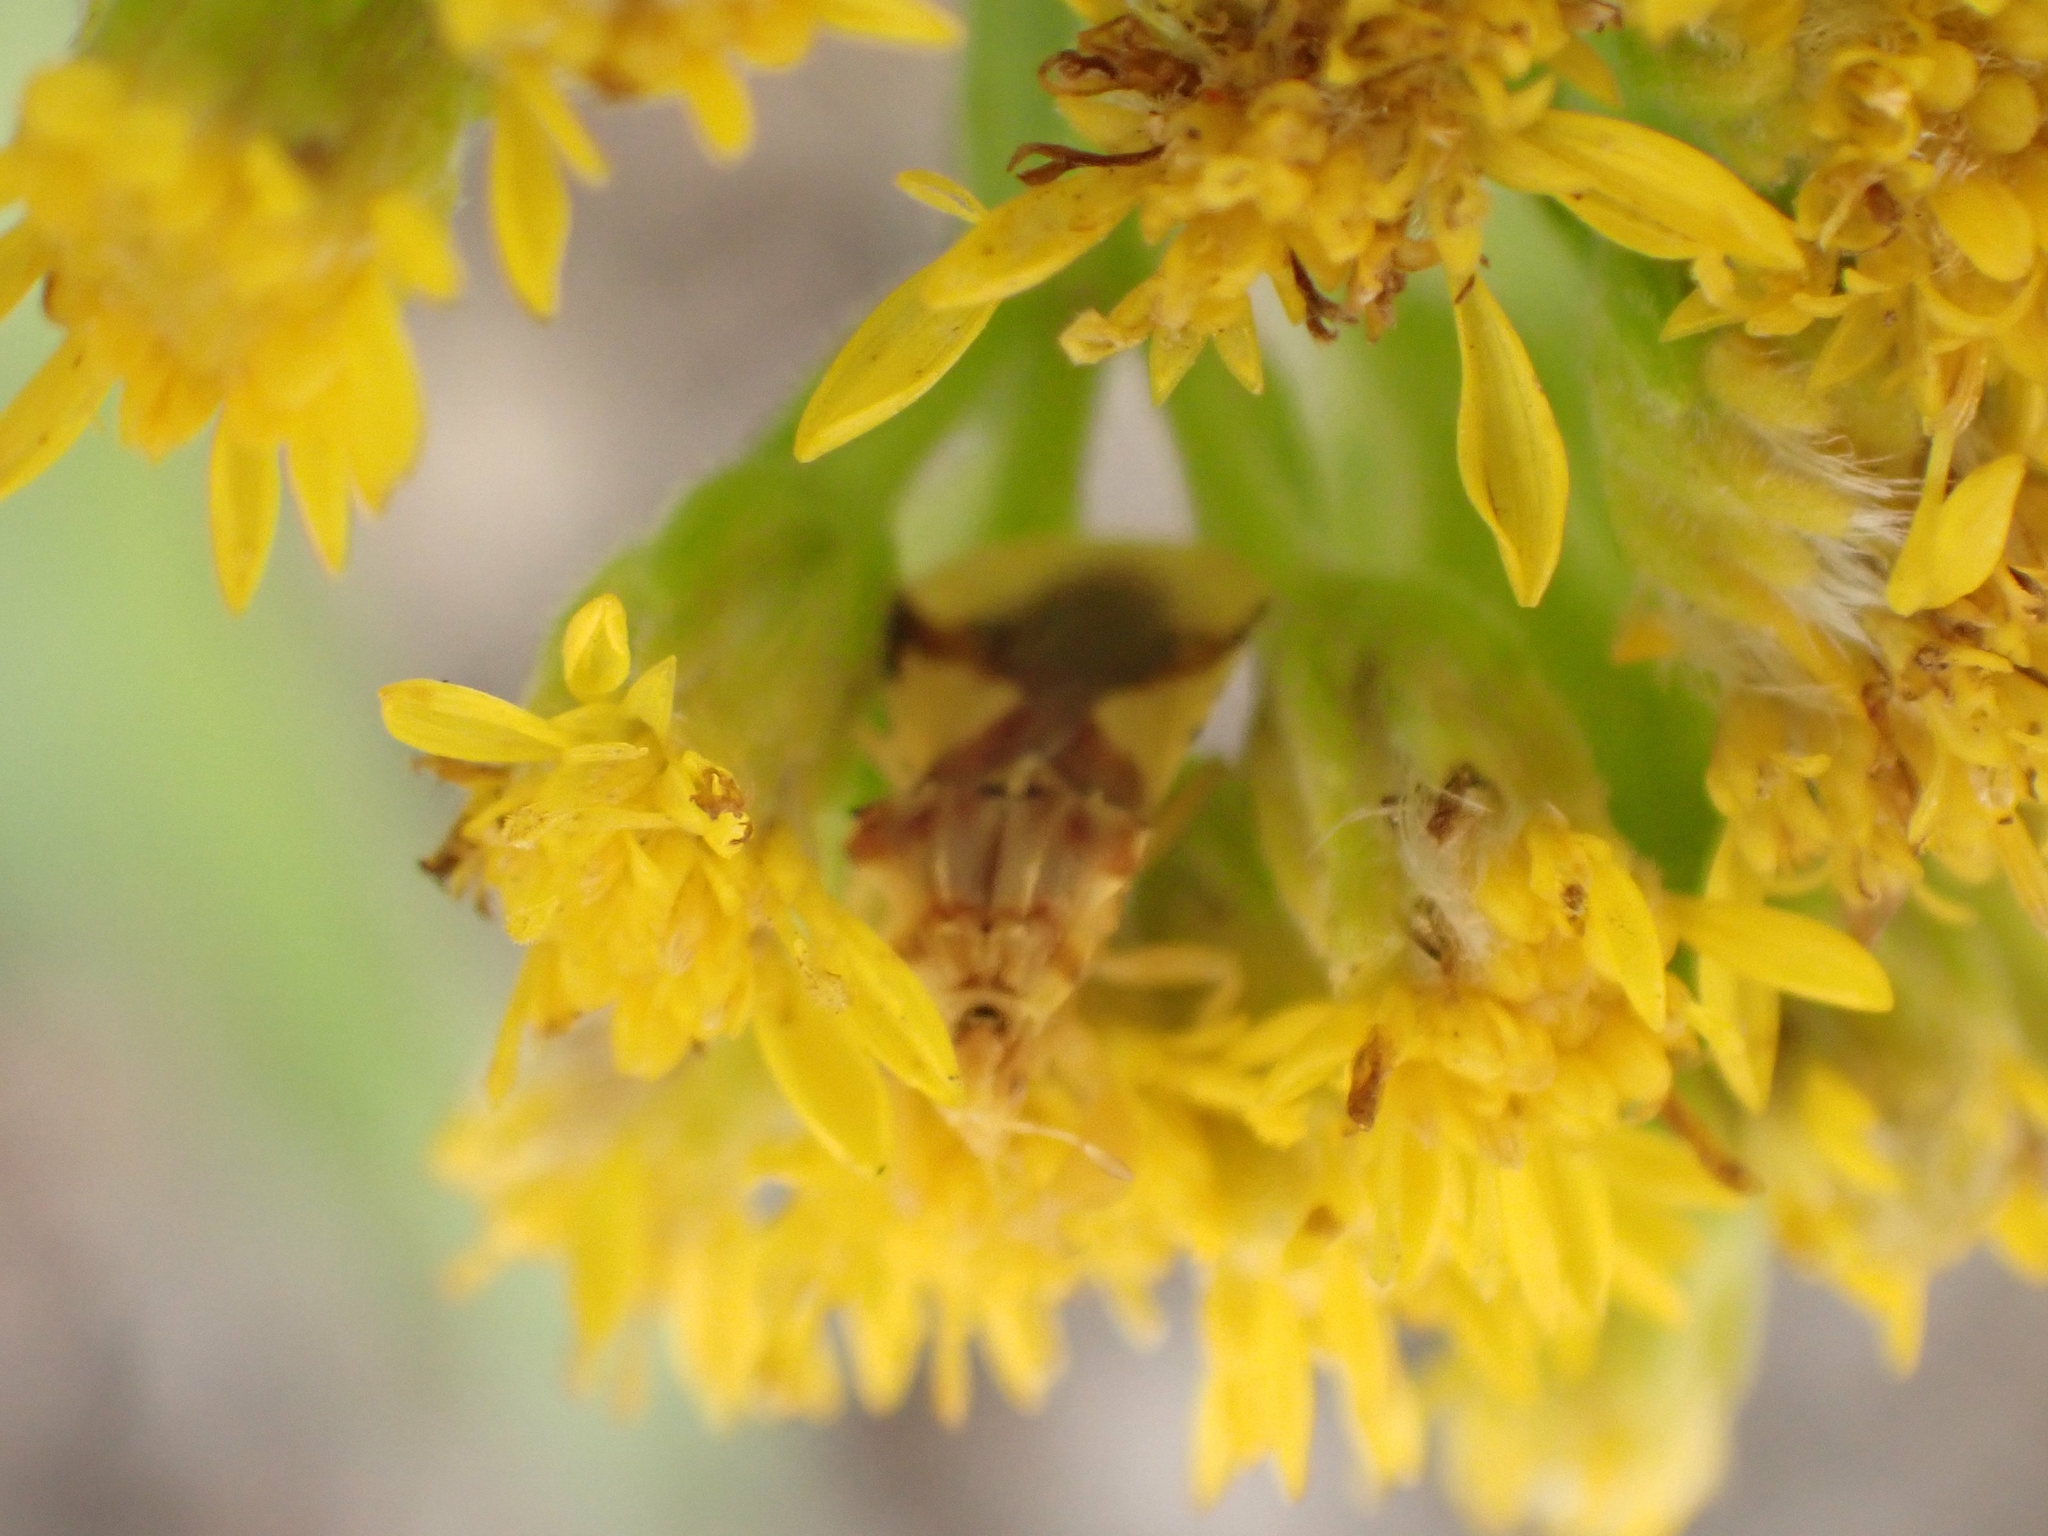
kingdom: Animalia
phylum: Arthropoda
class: Insecta
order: Hemiptera
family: Reduviidae
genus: Phymata
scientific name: Phymata americana
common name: Jagged ambush bug
